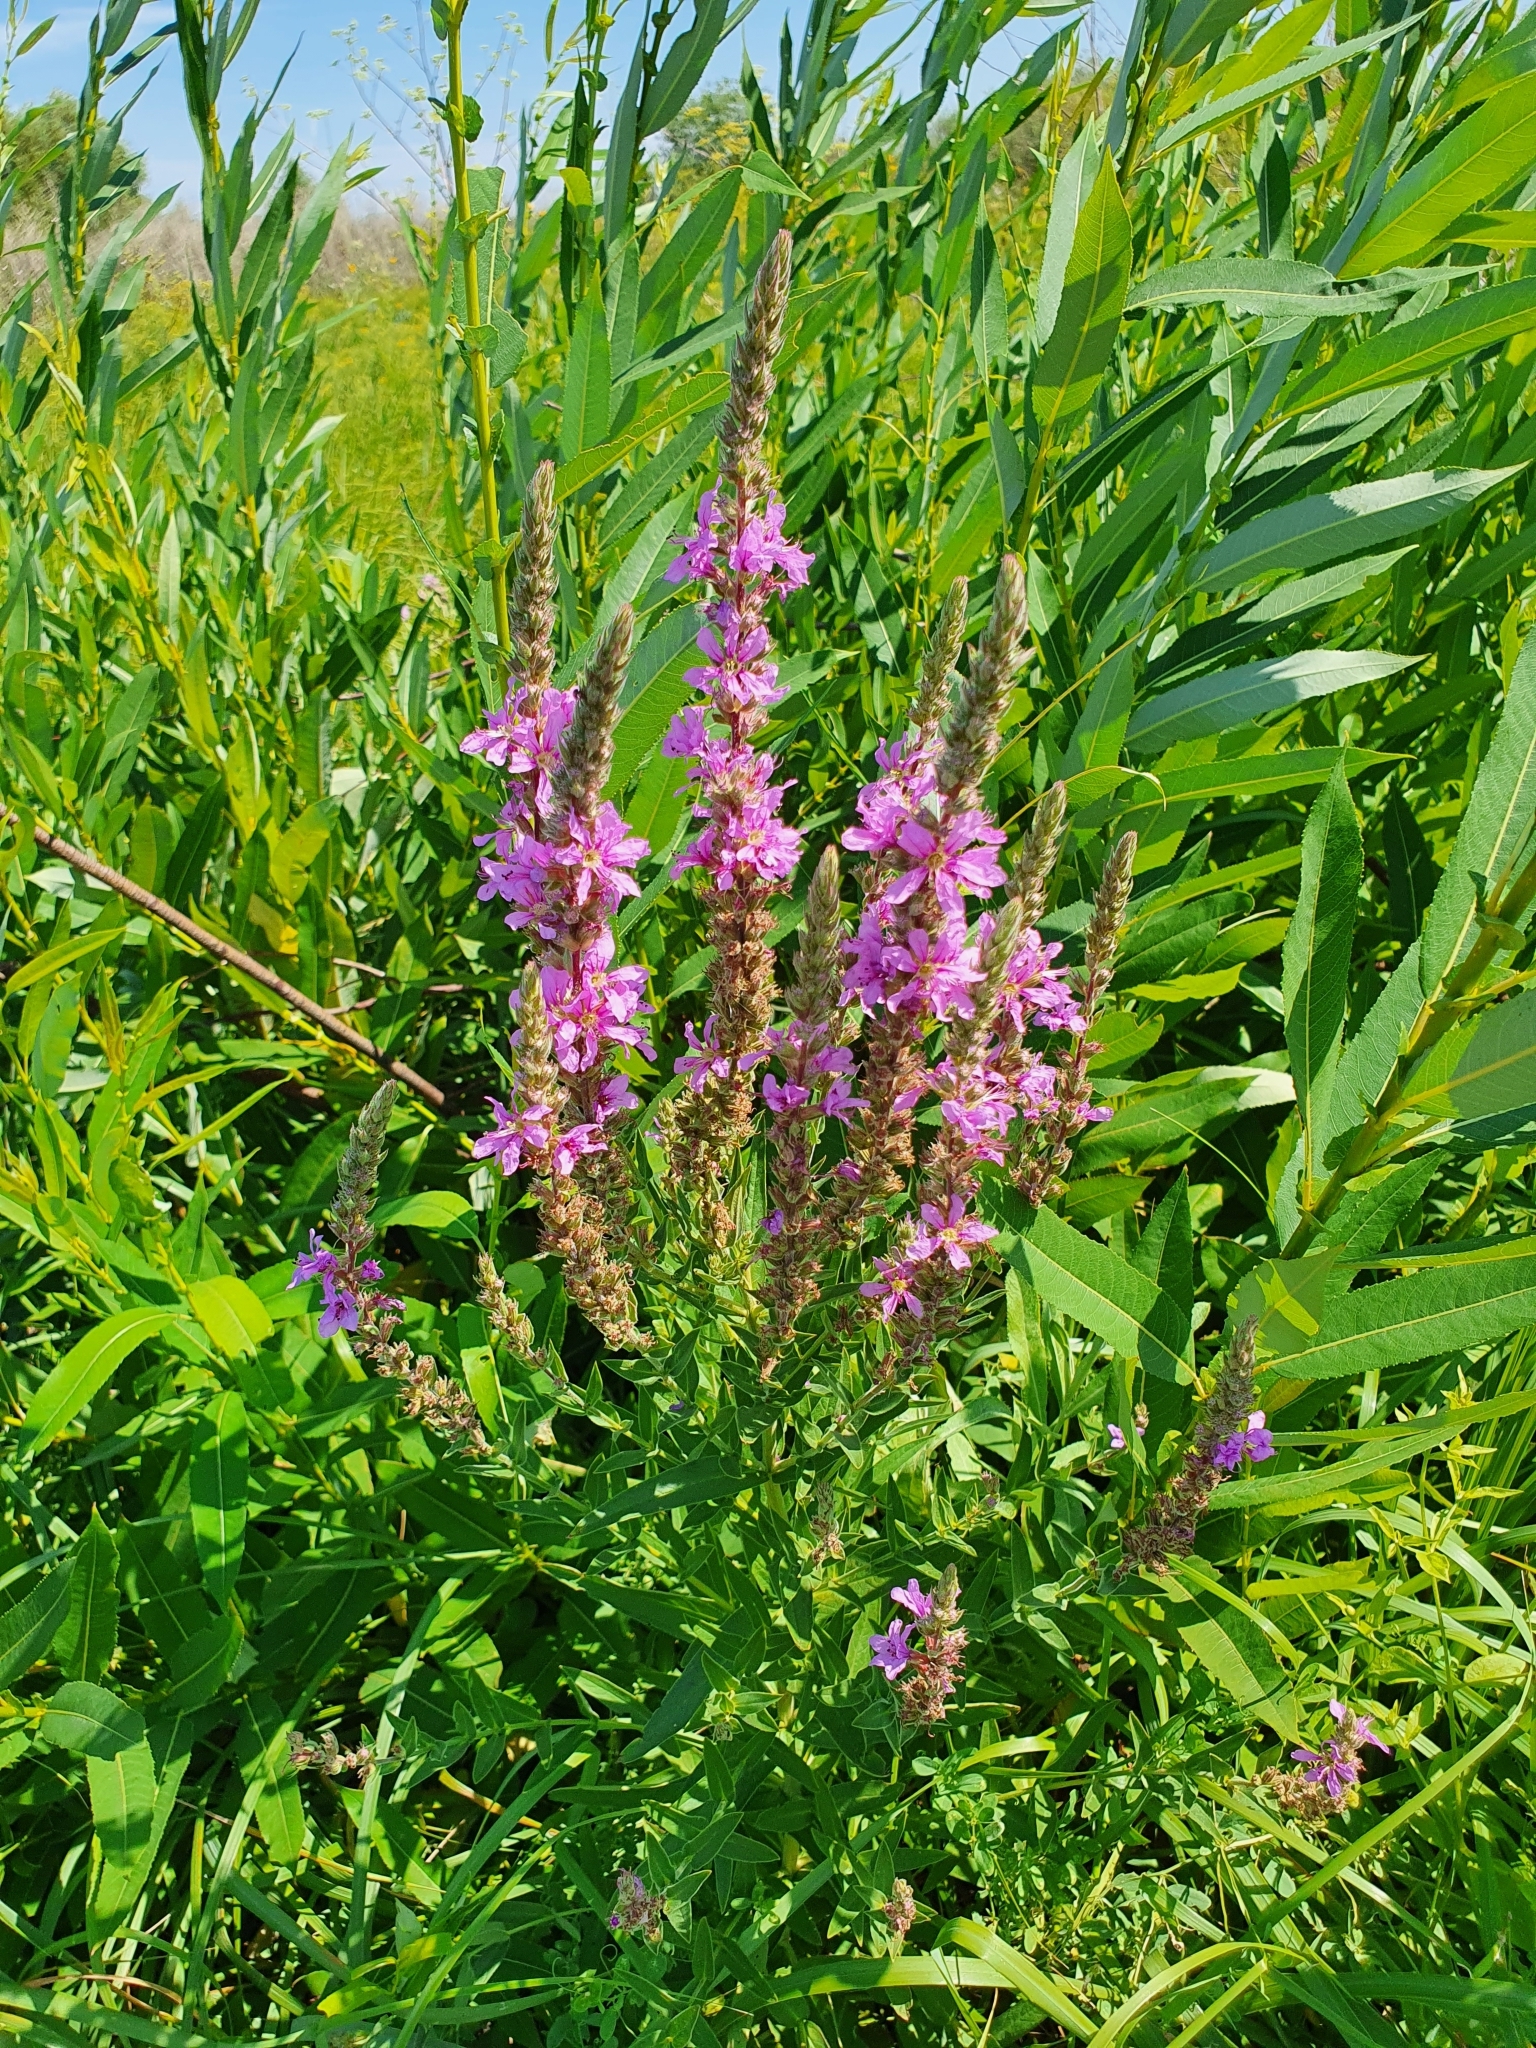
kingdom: Plantae
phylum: Tracheophyta
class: Magnoliopsida
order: Myrtales
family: Lythraceae
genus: Lythrum
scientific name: Lythrum salicaria
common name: Purple loosestrife
